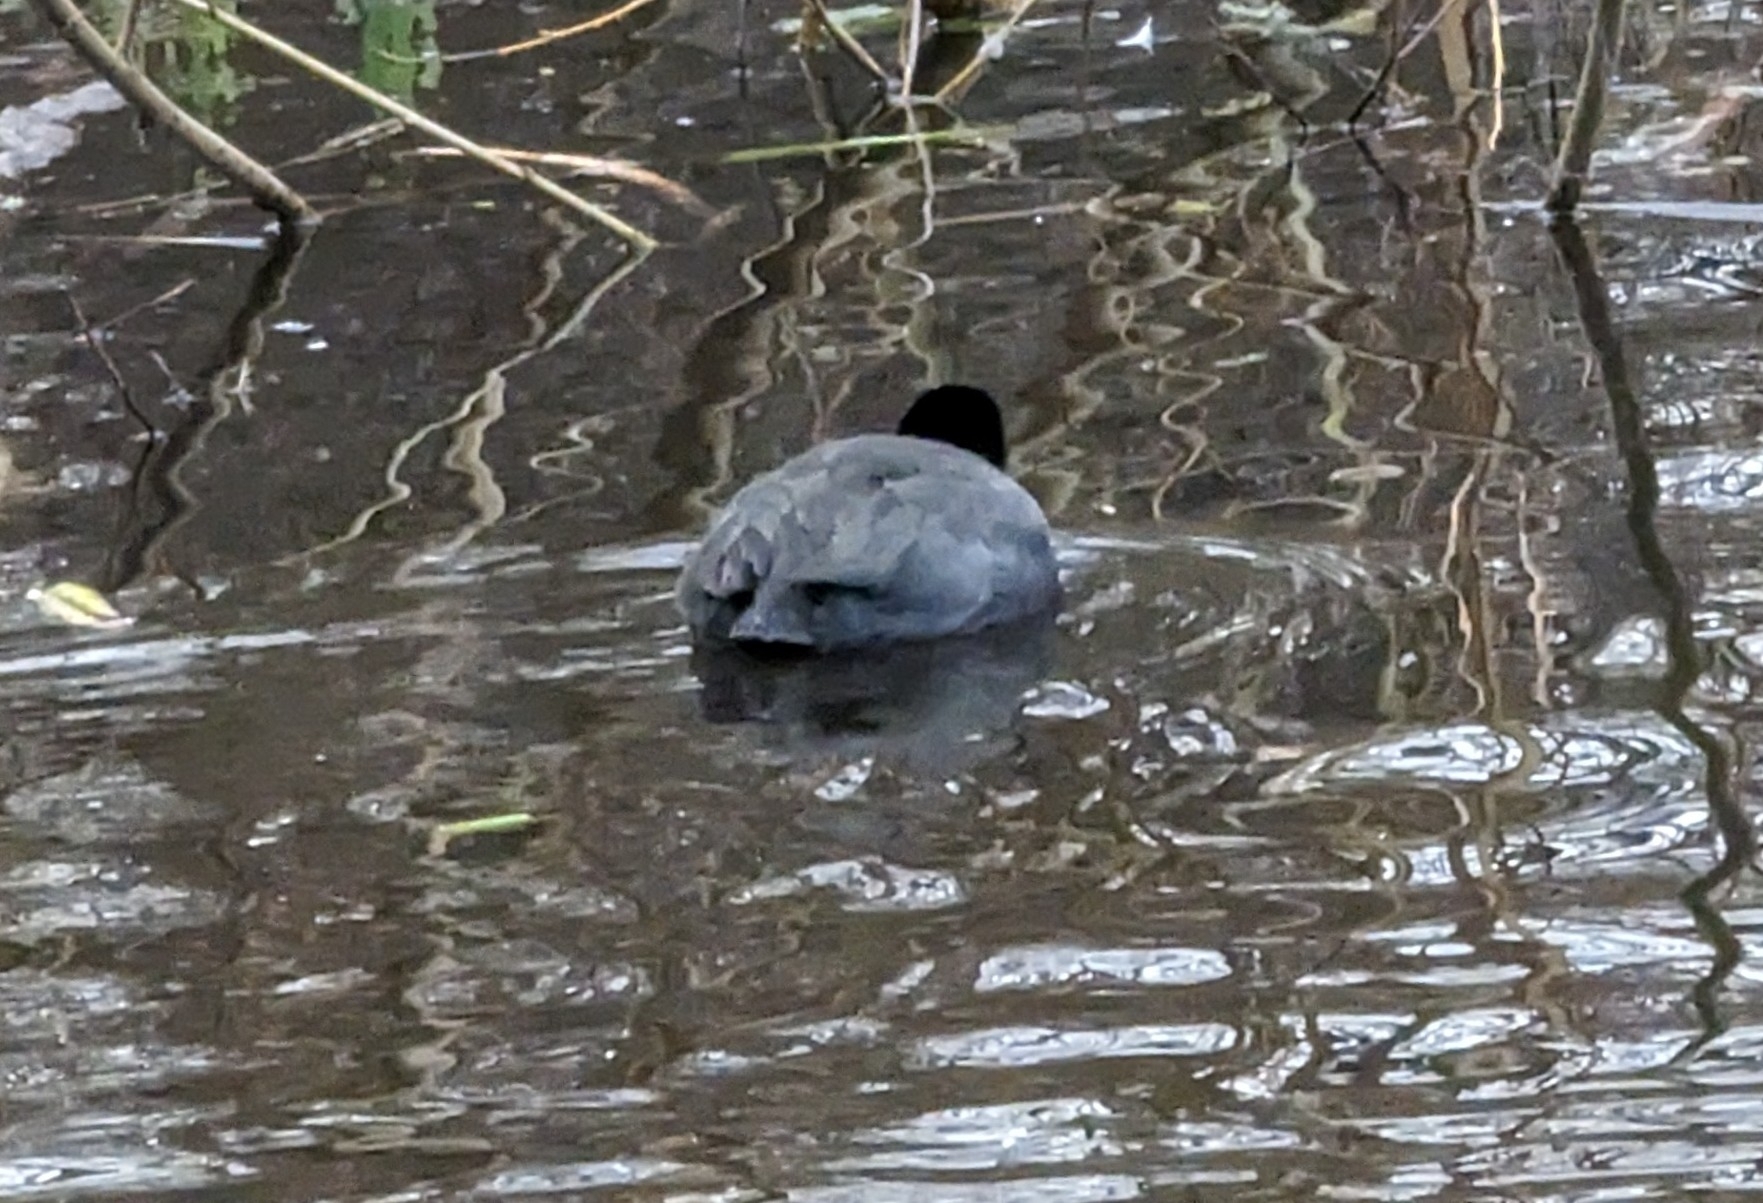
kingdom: Animalia
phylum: Chordata
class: Aves
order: Gruiformes
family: Rallidae
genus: Fulica
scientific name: Fulica americana
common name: American coot
